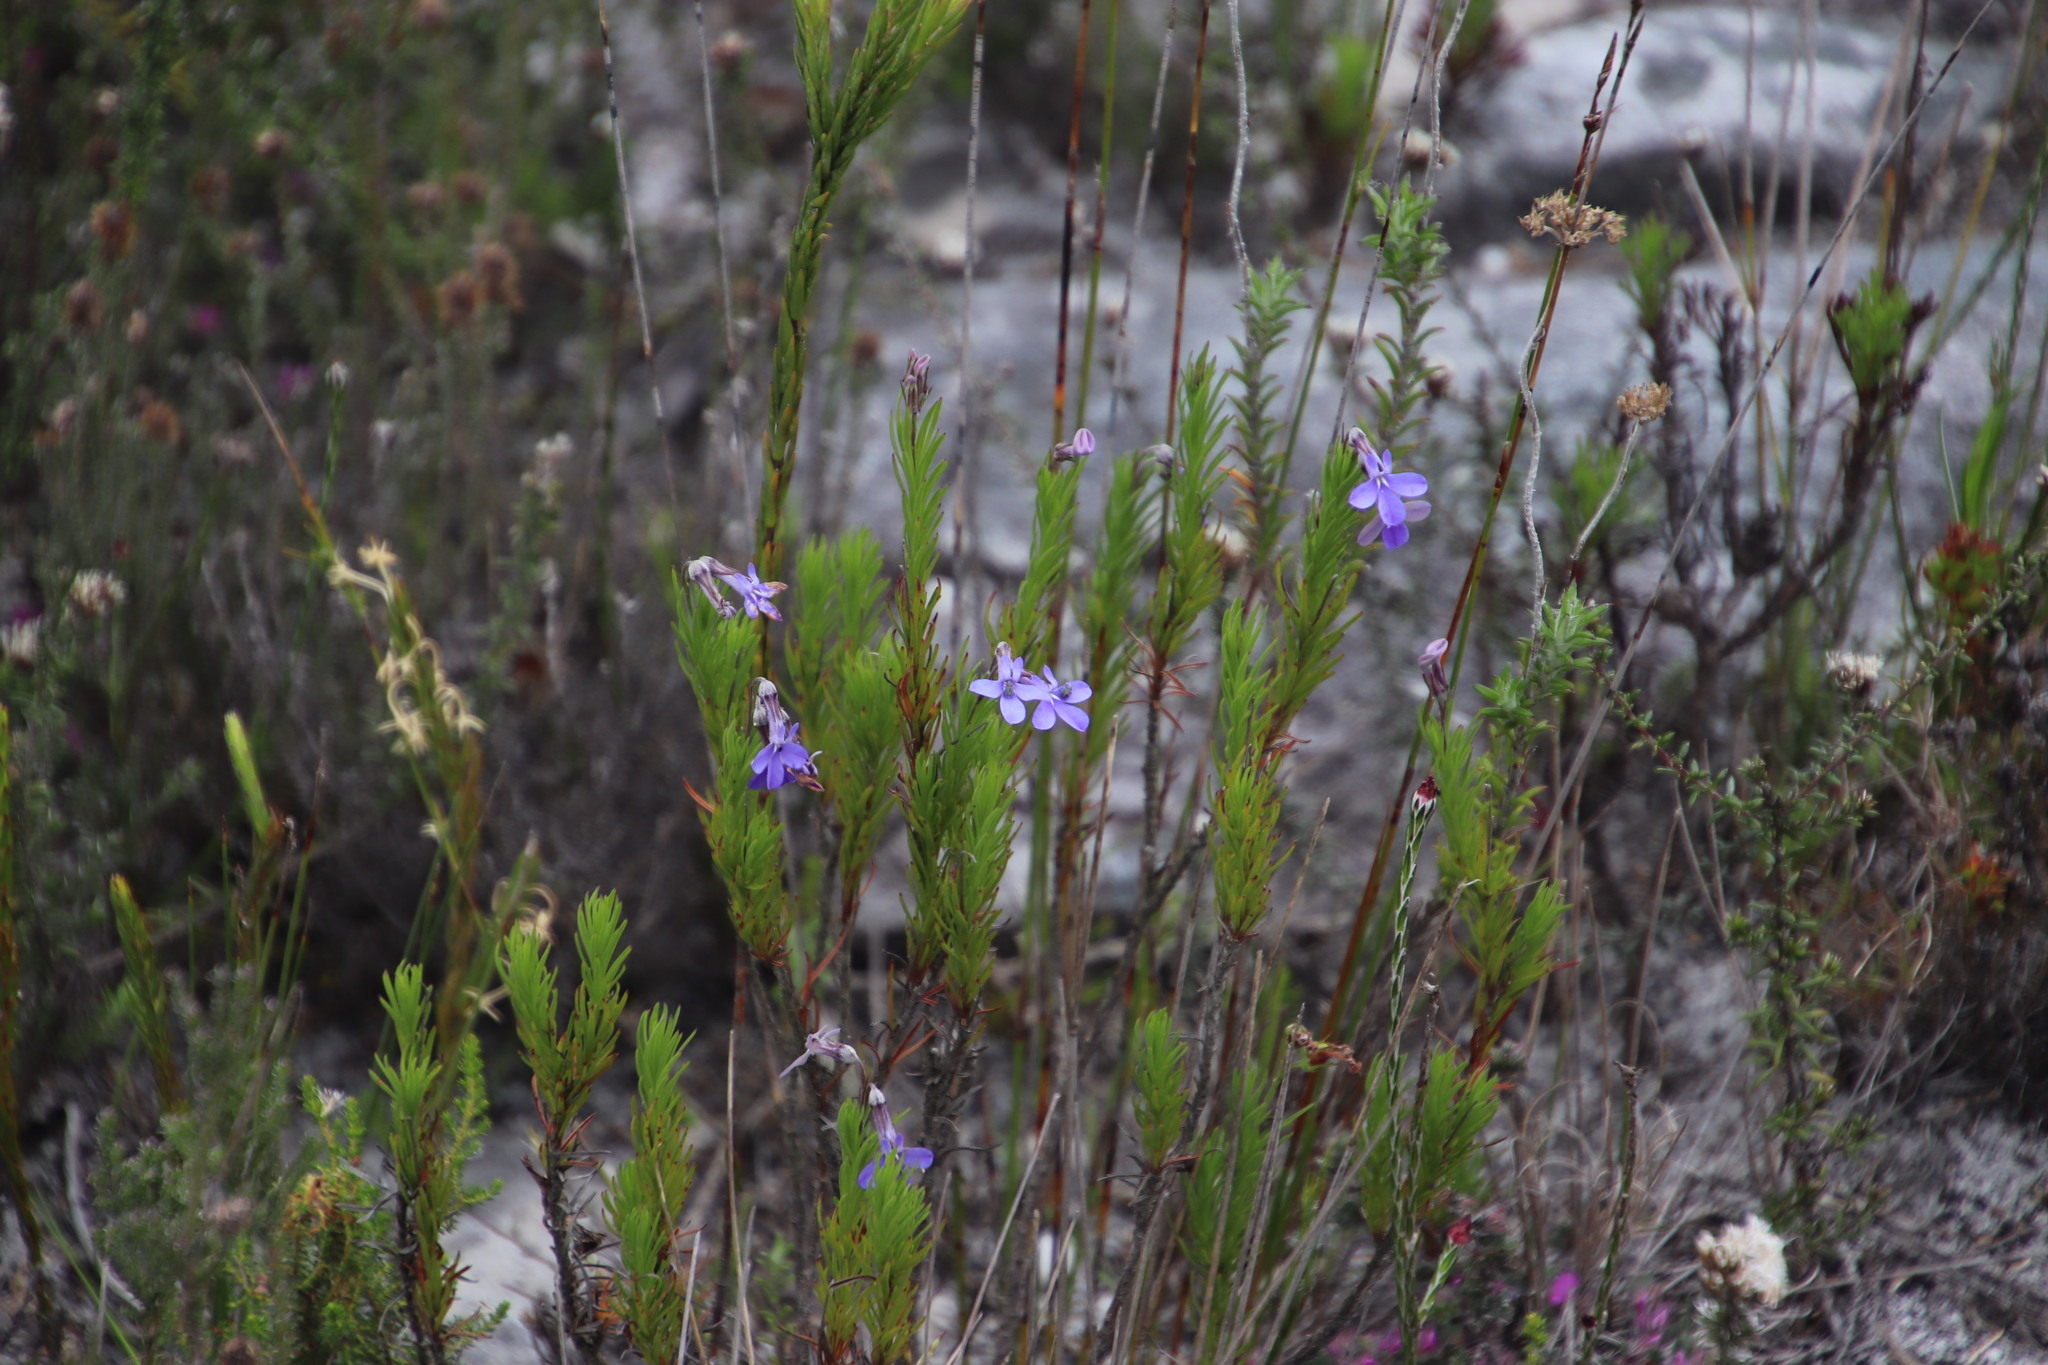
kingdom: Plantae
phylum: Tracheophyta
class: Magnoliopsida
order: Asterales
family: Campanulaceae
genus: Lobelia
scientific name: Lobelia pinifolia
